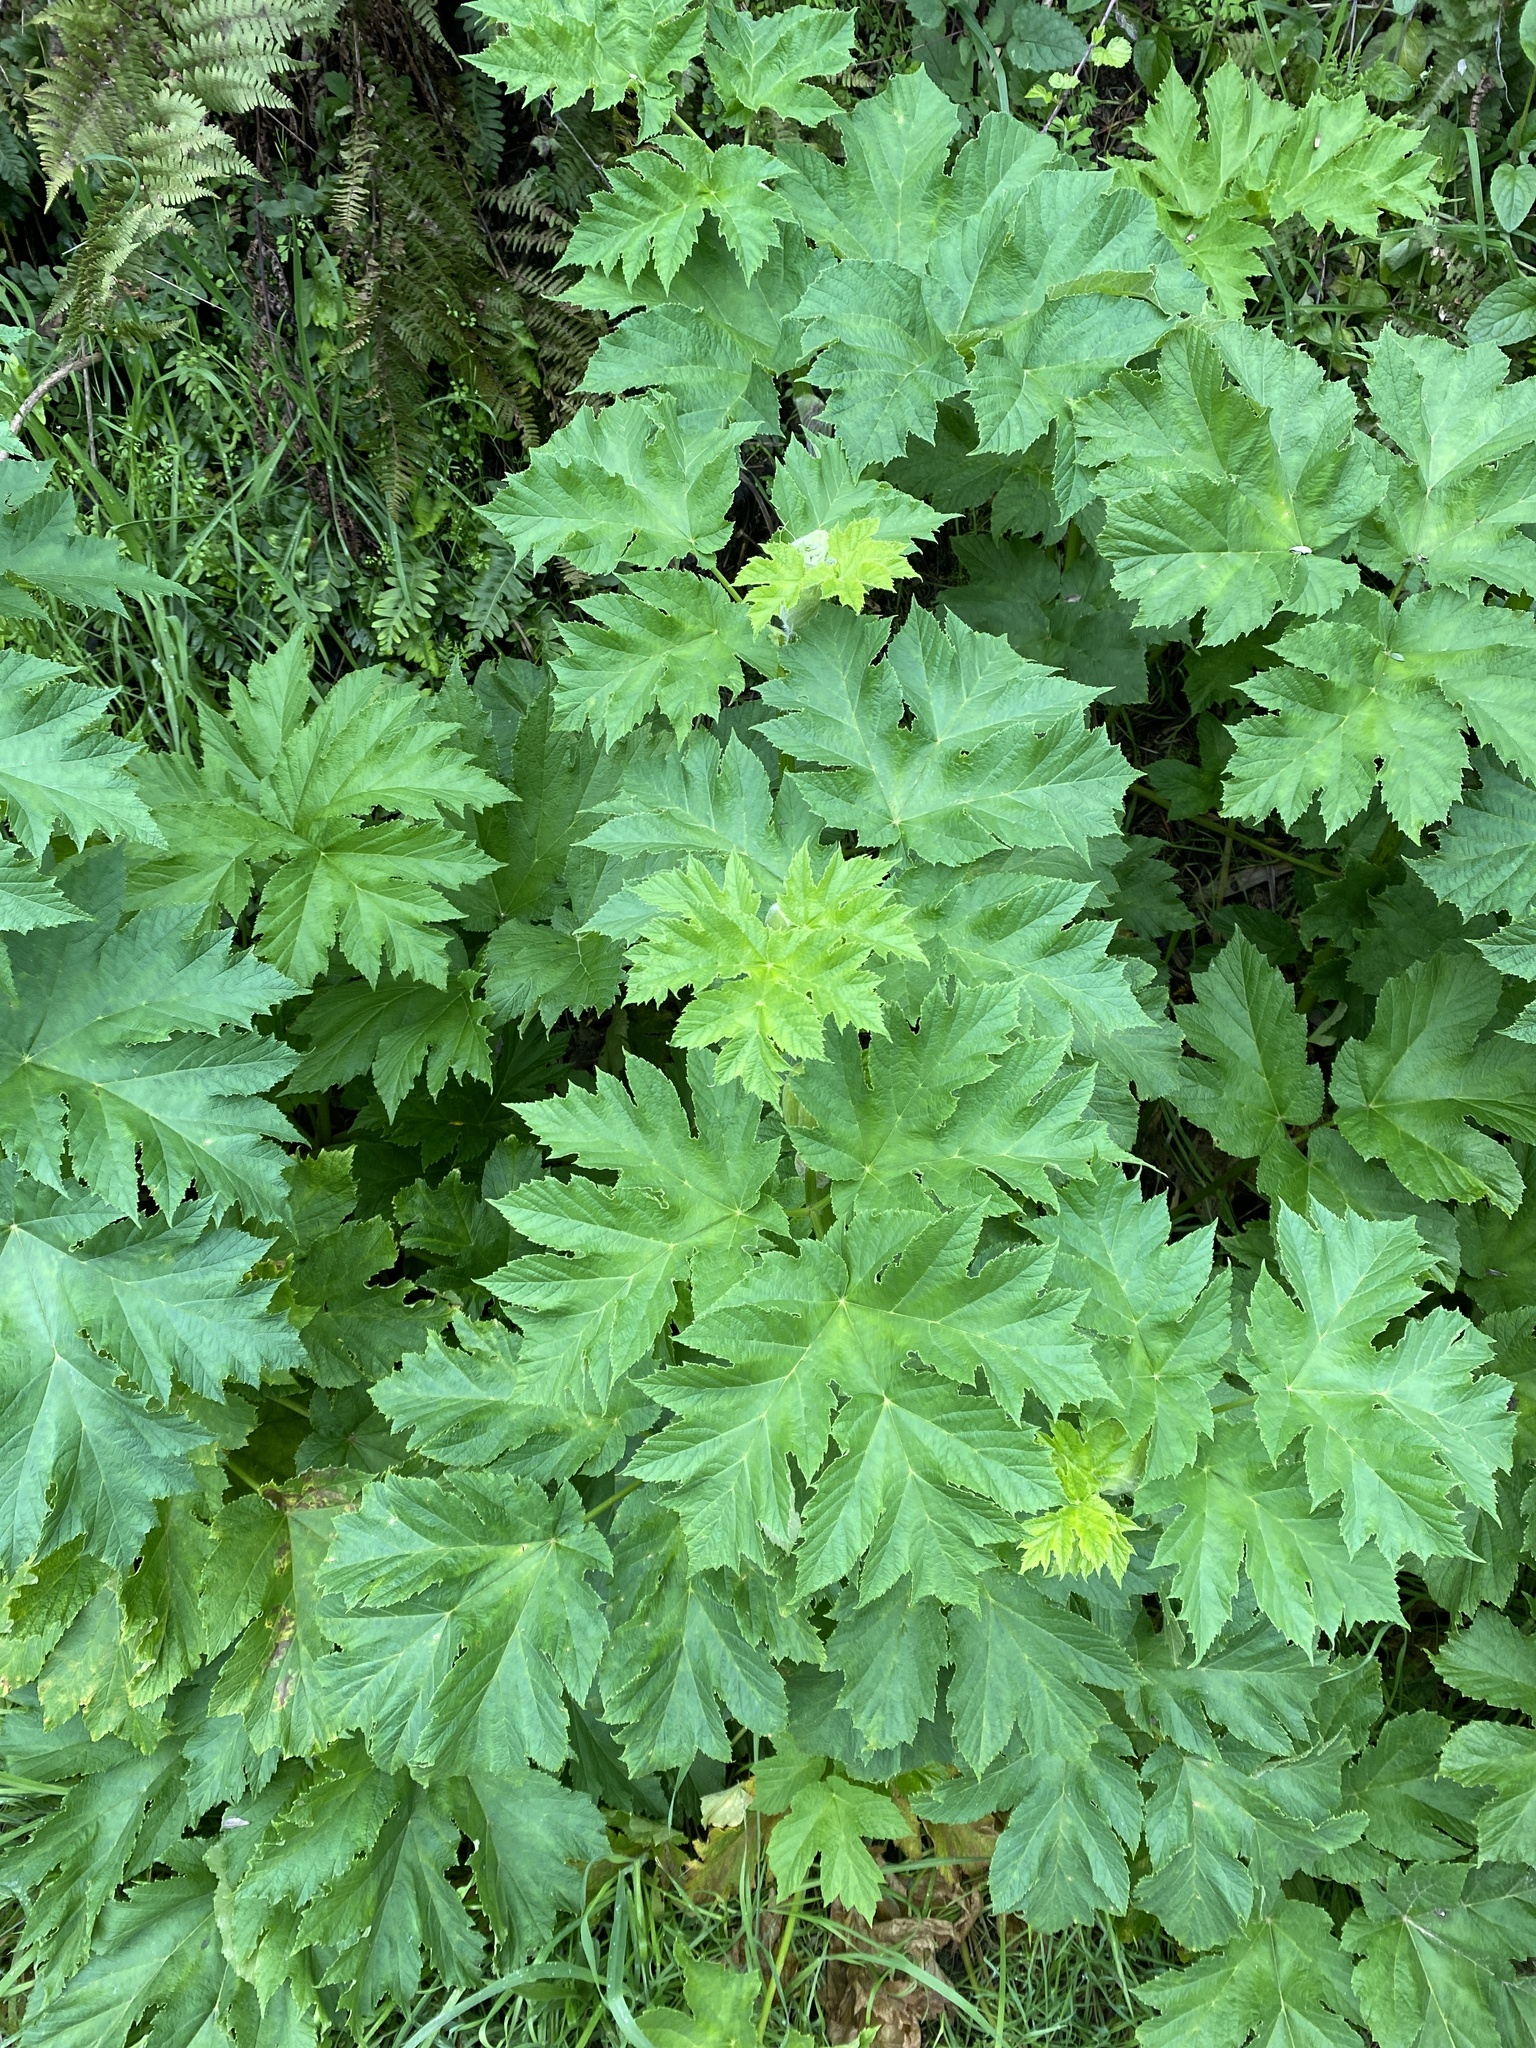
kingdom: Plantae
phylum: Tracheophyta
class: Magnoliopsida
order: Apiales
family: Apiaceae
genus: Heracleum
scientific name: Heracleum maximum
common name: American cow parsnip
